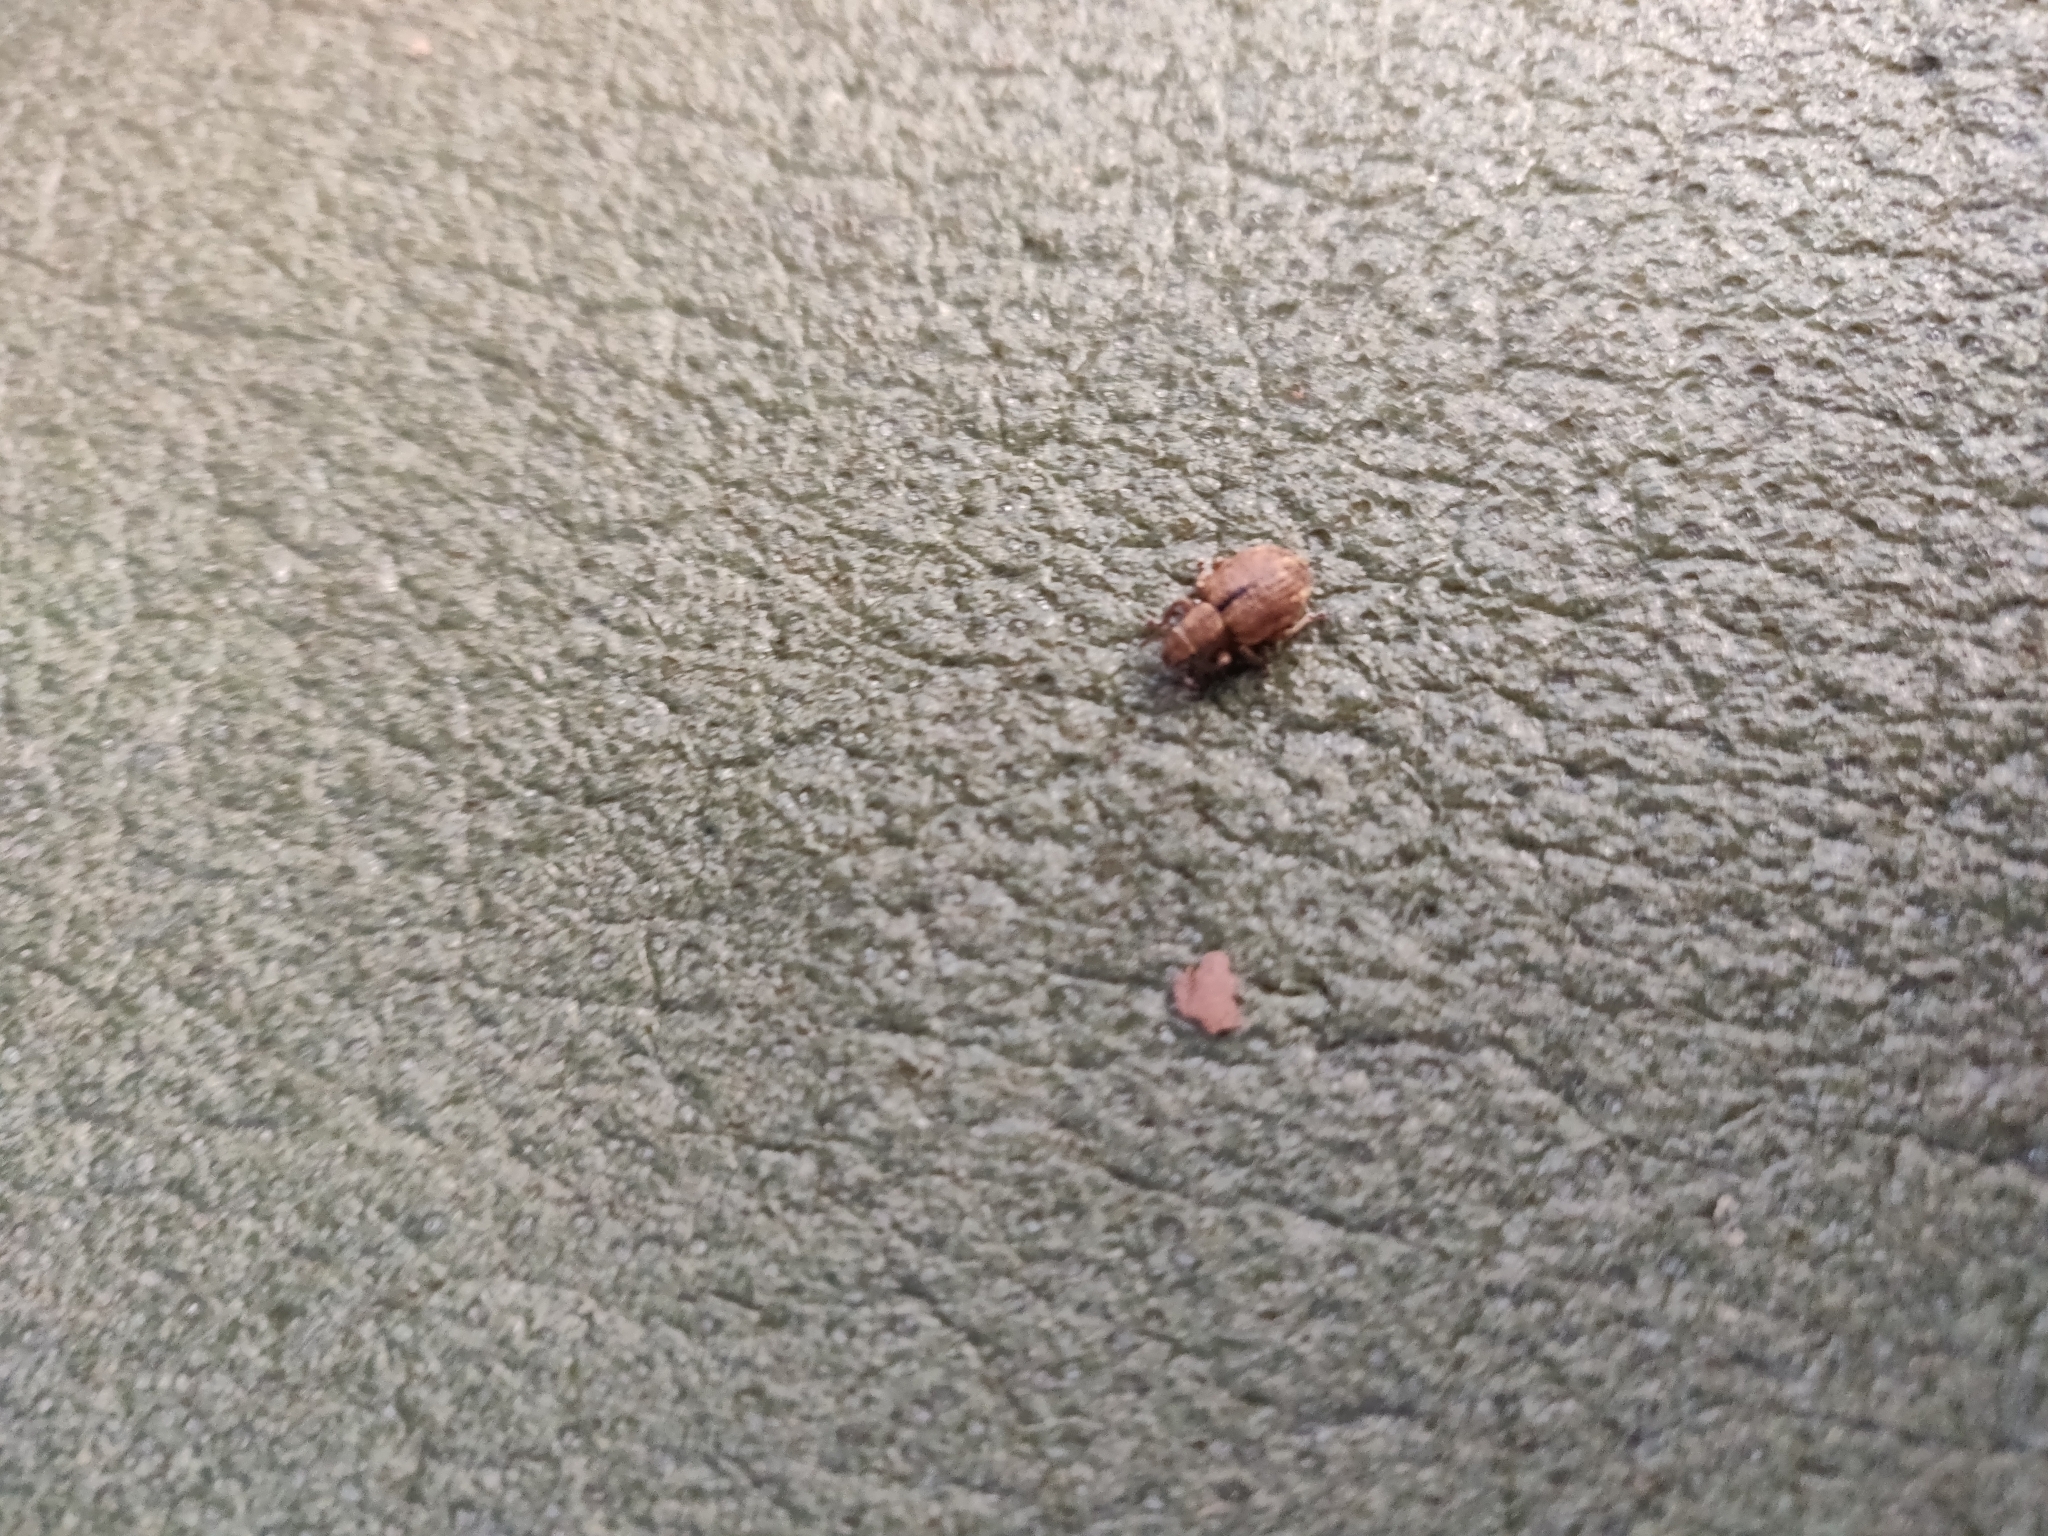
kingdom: Animalia
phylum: Arthropoda
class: Insecta
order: Coleoptera
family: Curculionidae
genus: Strophosoma
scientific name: Strophosoma melanogrammum
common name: Weevil
